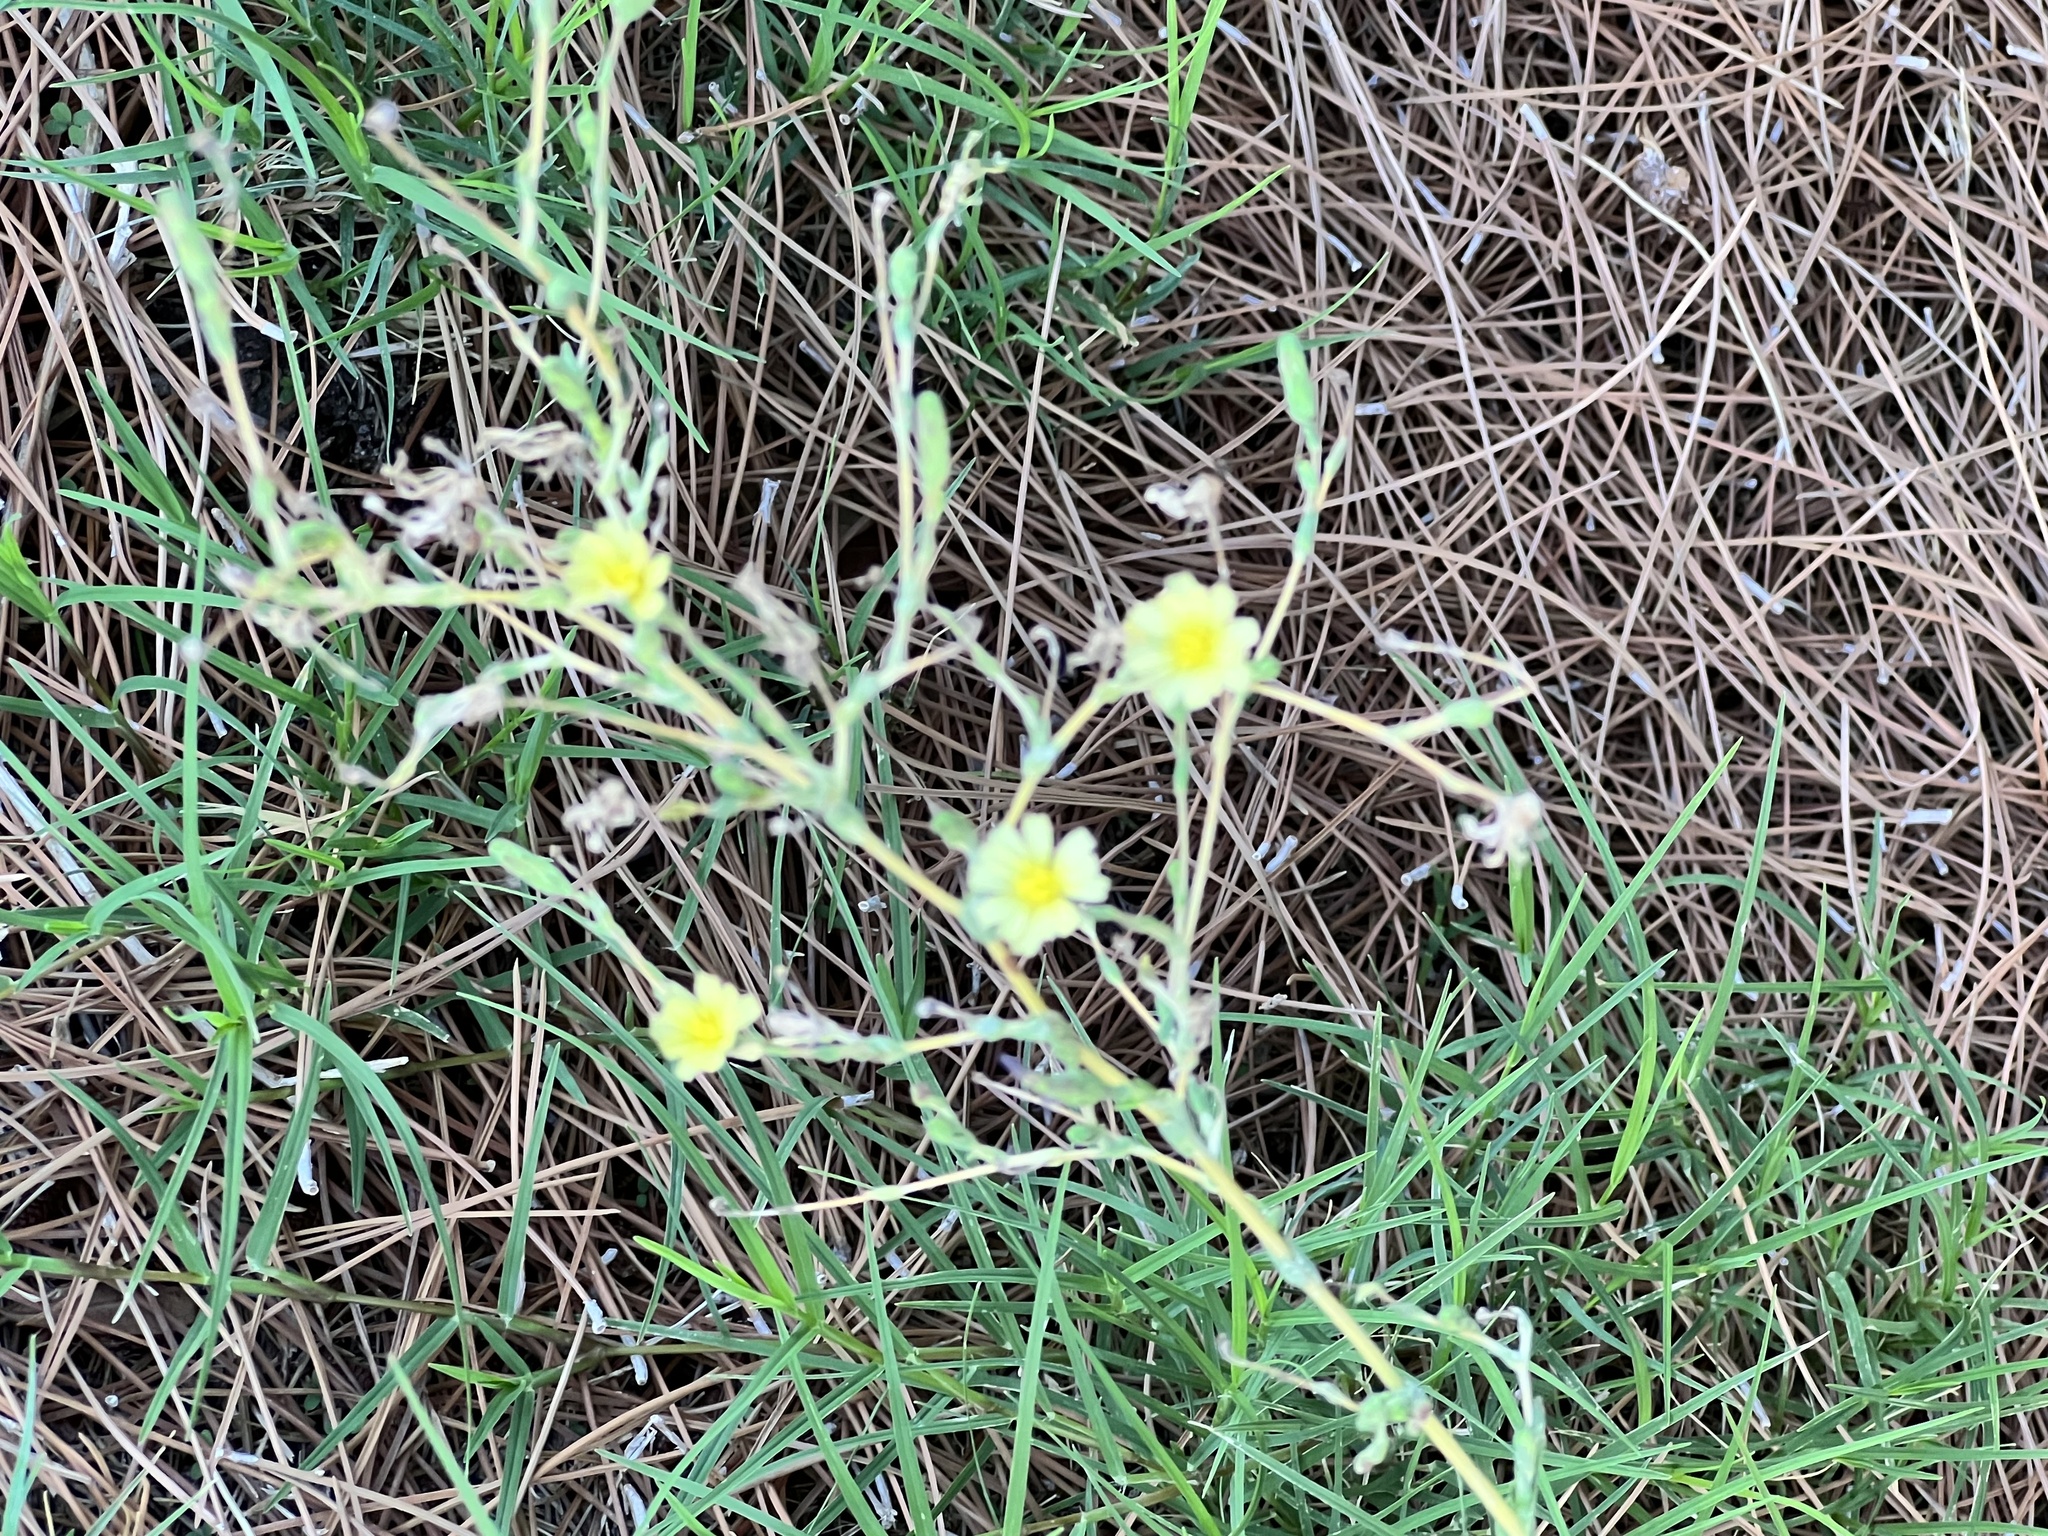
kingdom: Plantae
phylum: Tracheophyta
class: Magnoliopsida
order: Asterales
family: Asteraceae
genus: Lactuca
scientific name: Lactuca serriola
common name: Prickly lettuce
